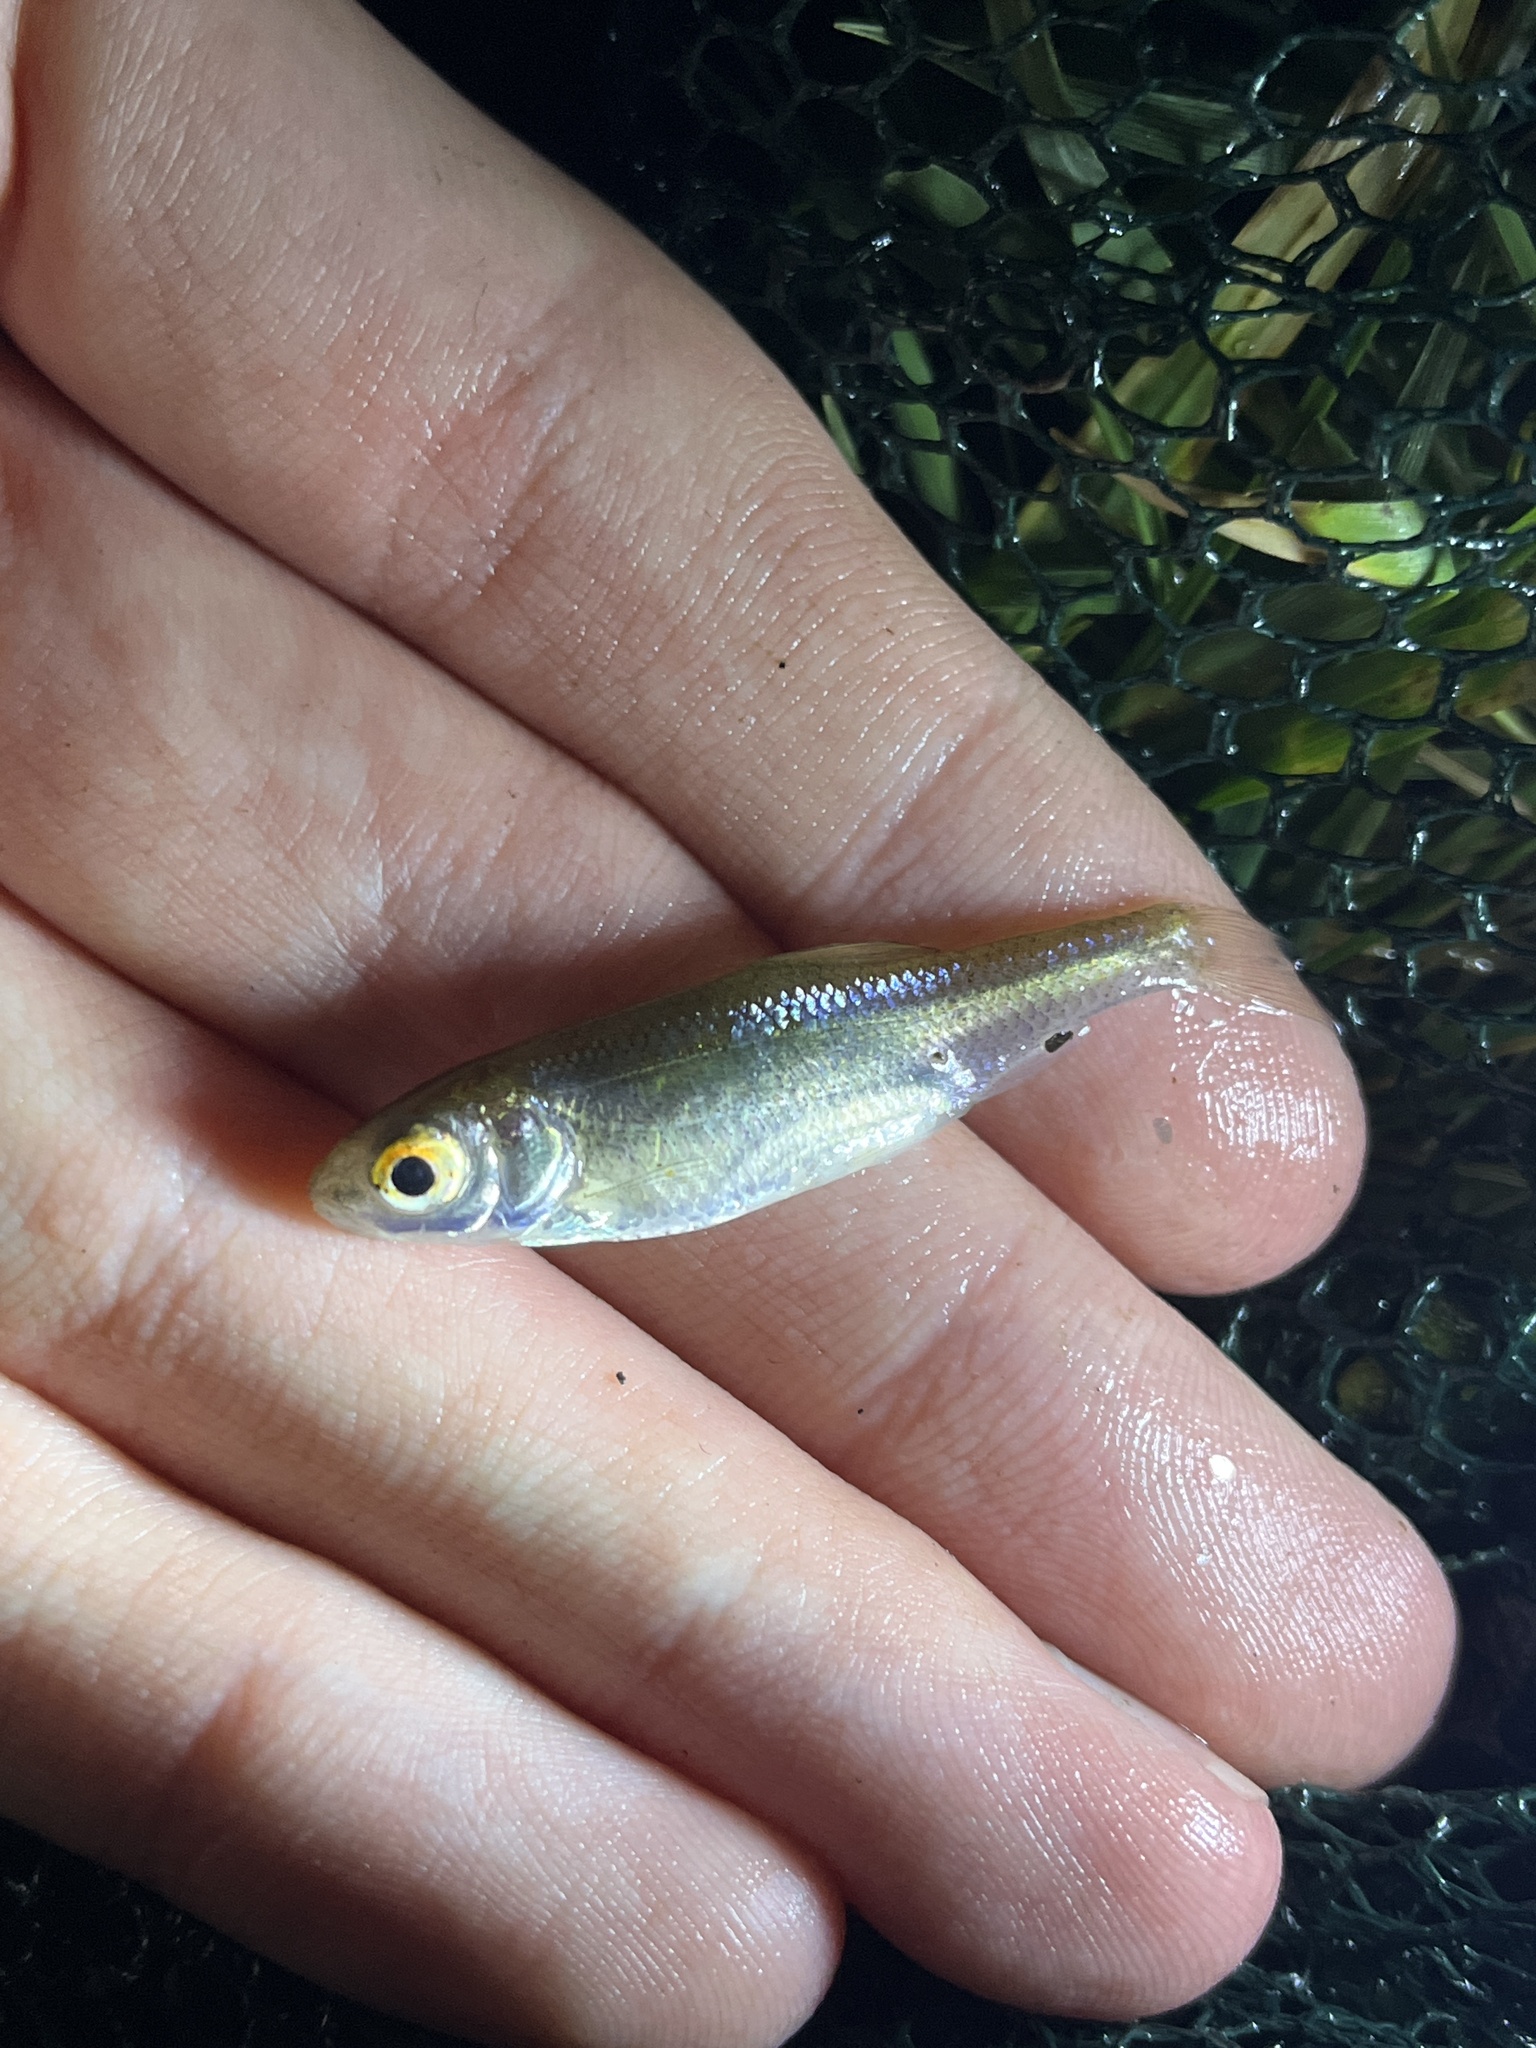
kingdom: Animalia
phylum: Chordata
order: Cypriniformes
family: Cyprinidae
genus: Rutilus
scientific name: Rutilus rutilus
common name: Roach
